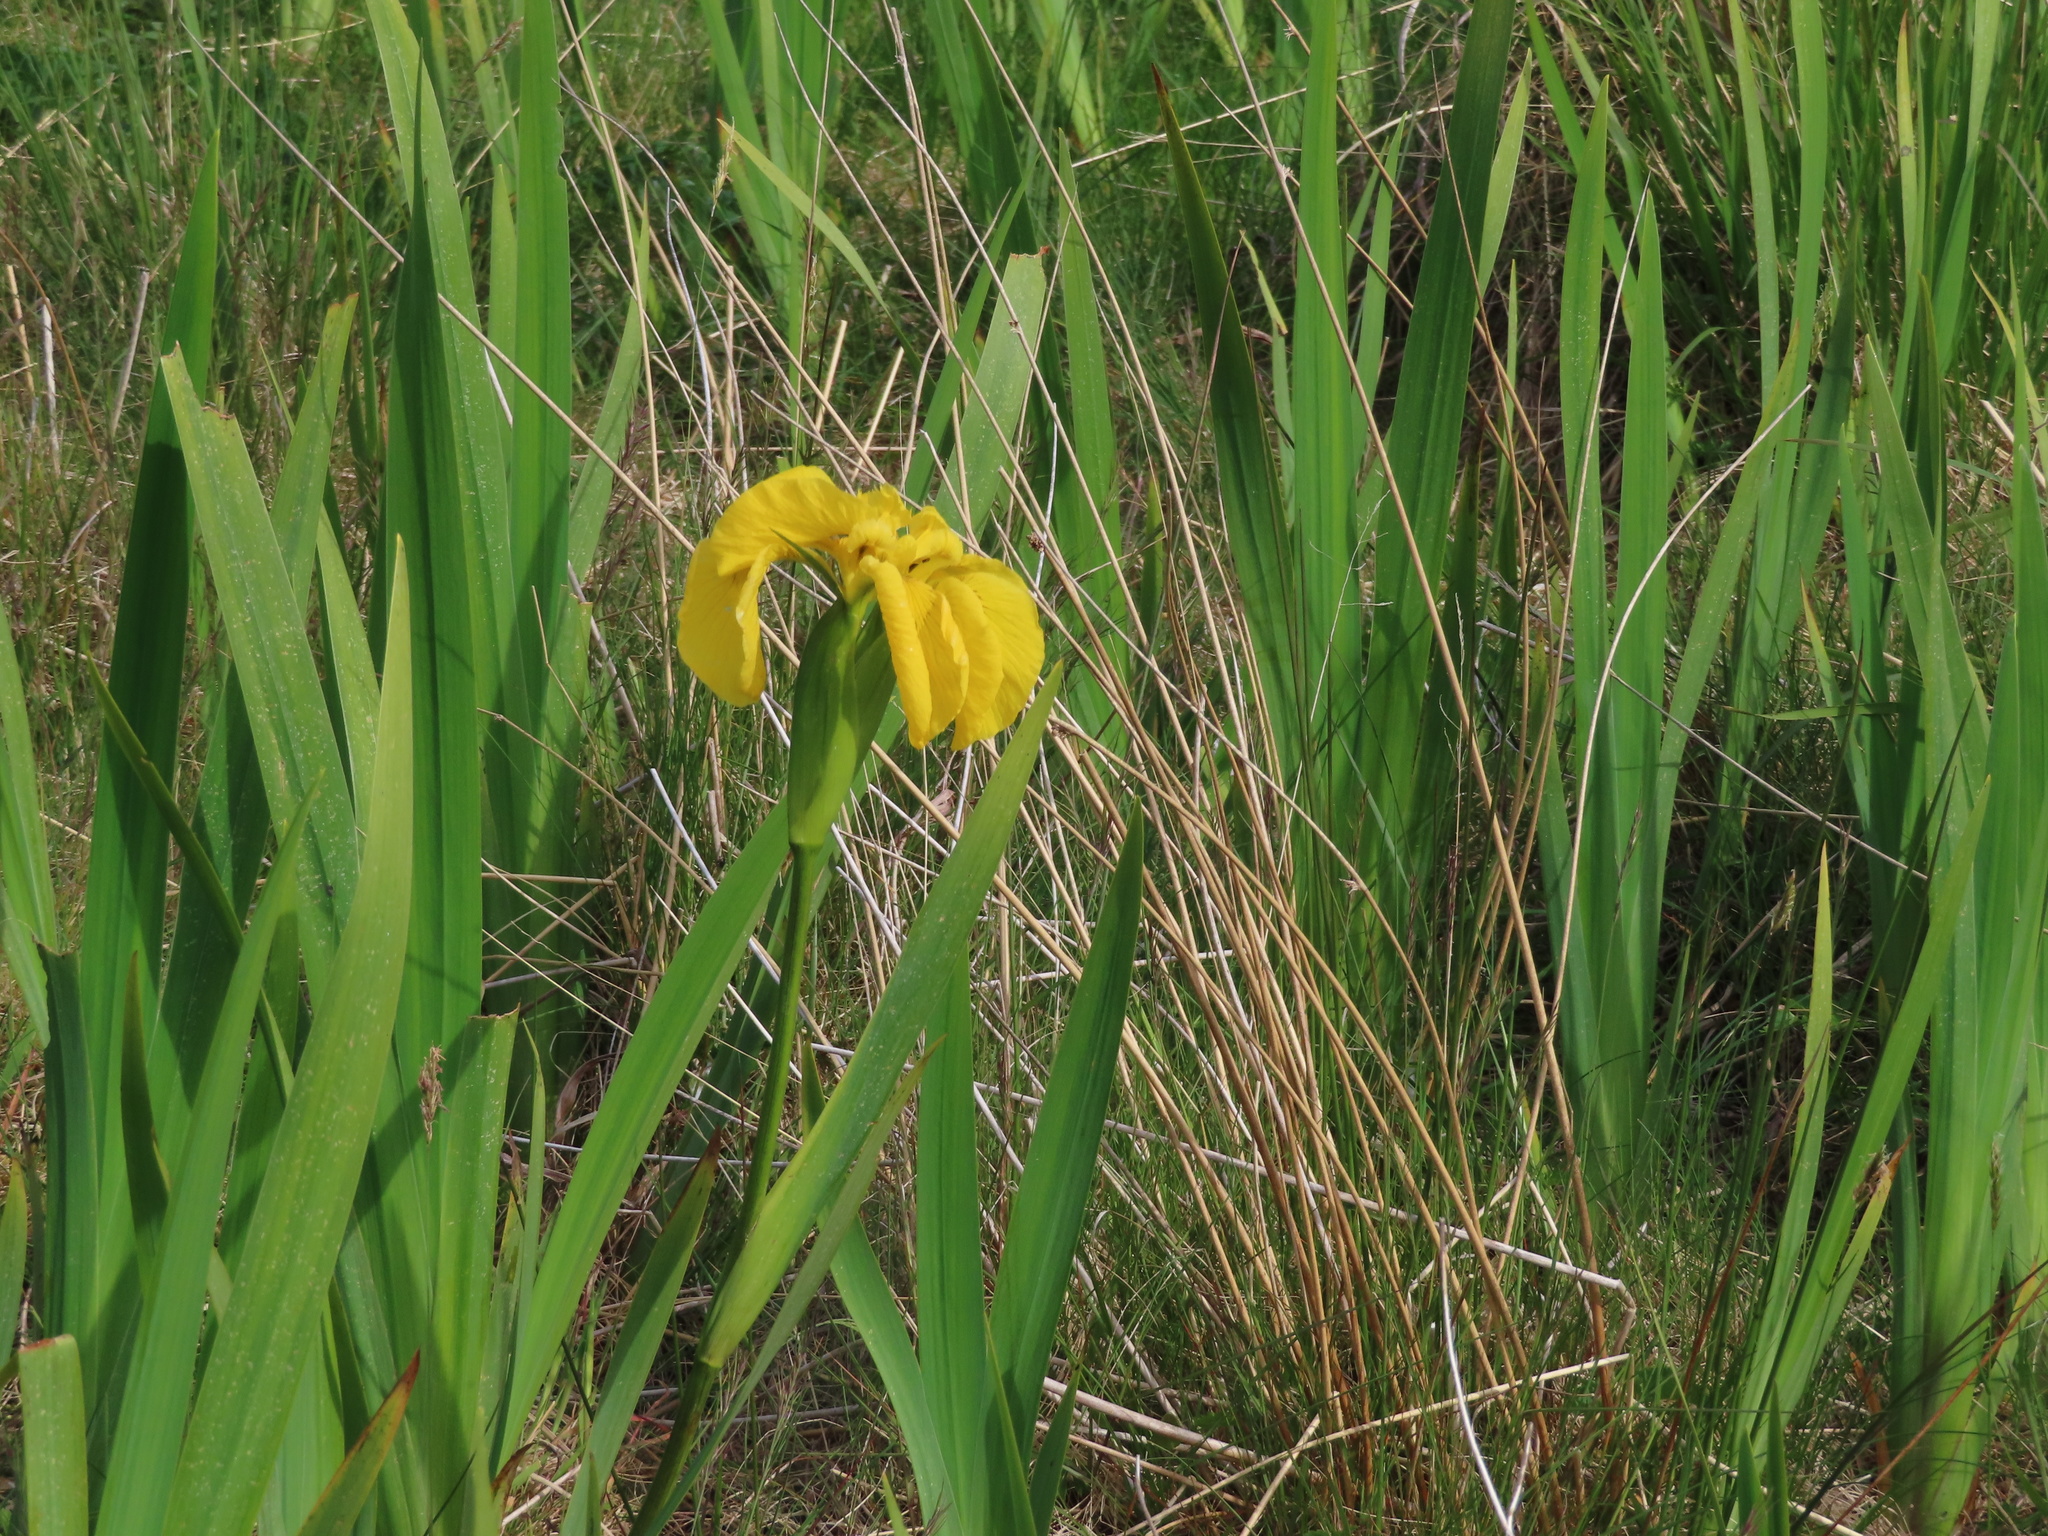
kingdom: Plantae
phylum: Tracheophyta
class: Liliopsida
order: Asparagales
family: Iridaceae
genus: Iris
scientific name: Iris pseudacorus
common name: Yellow flag
